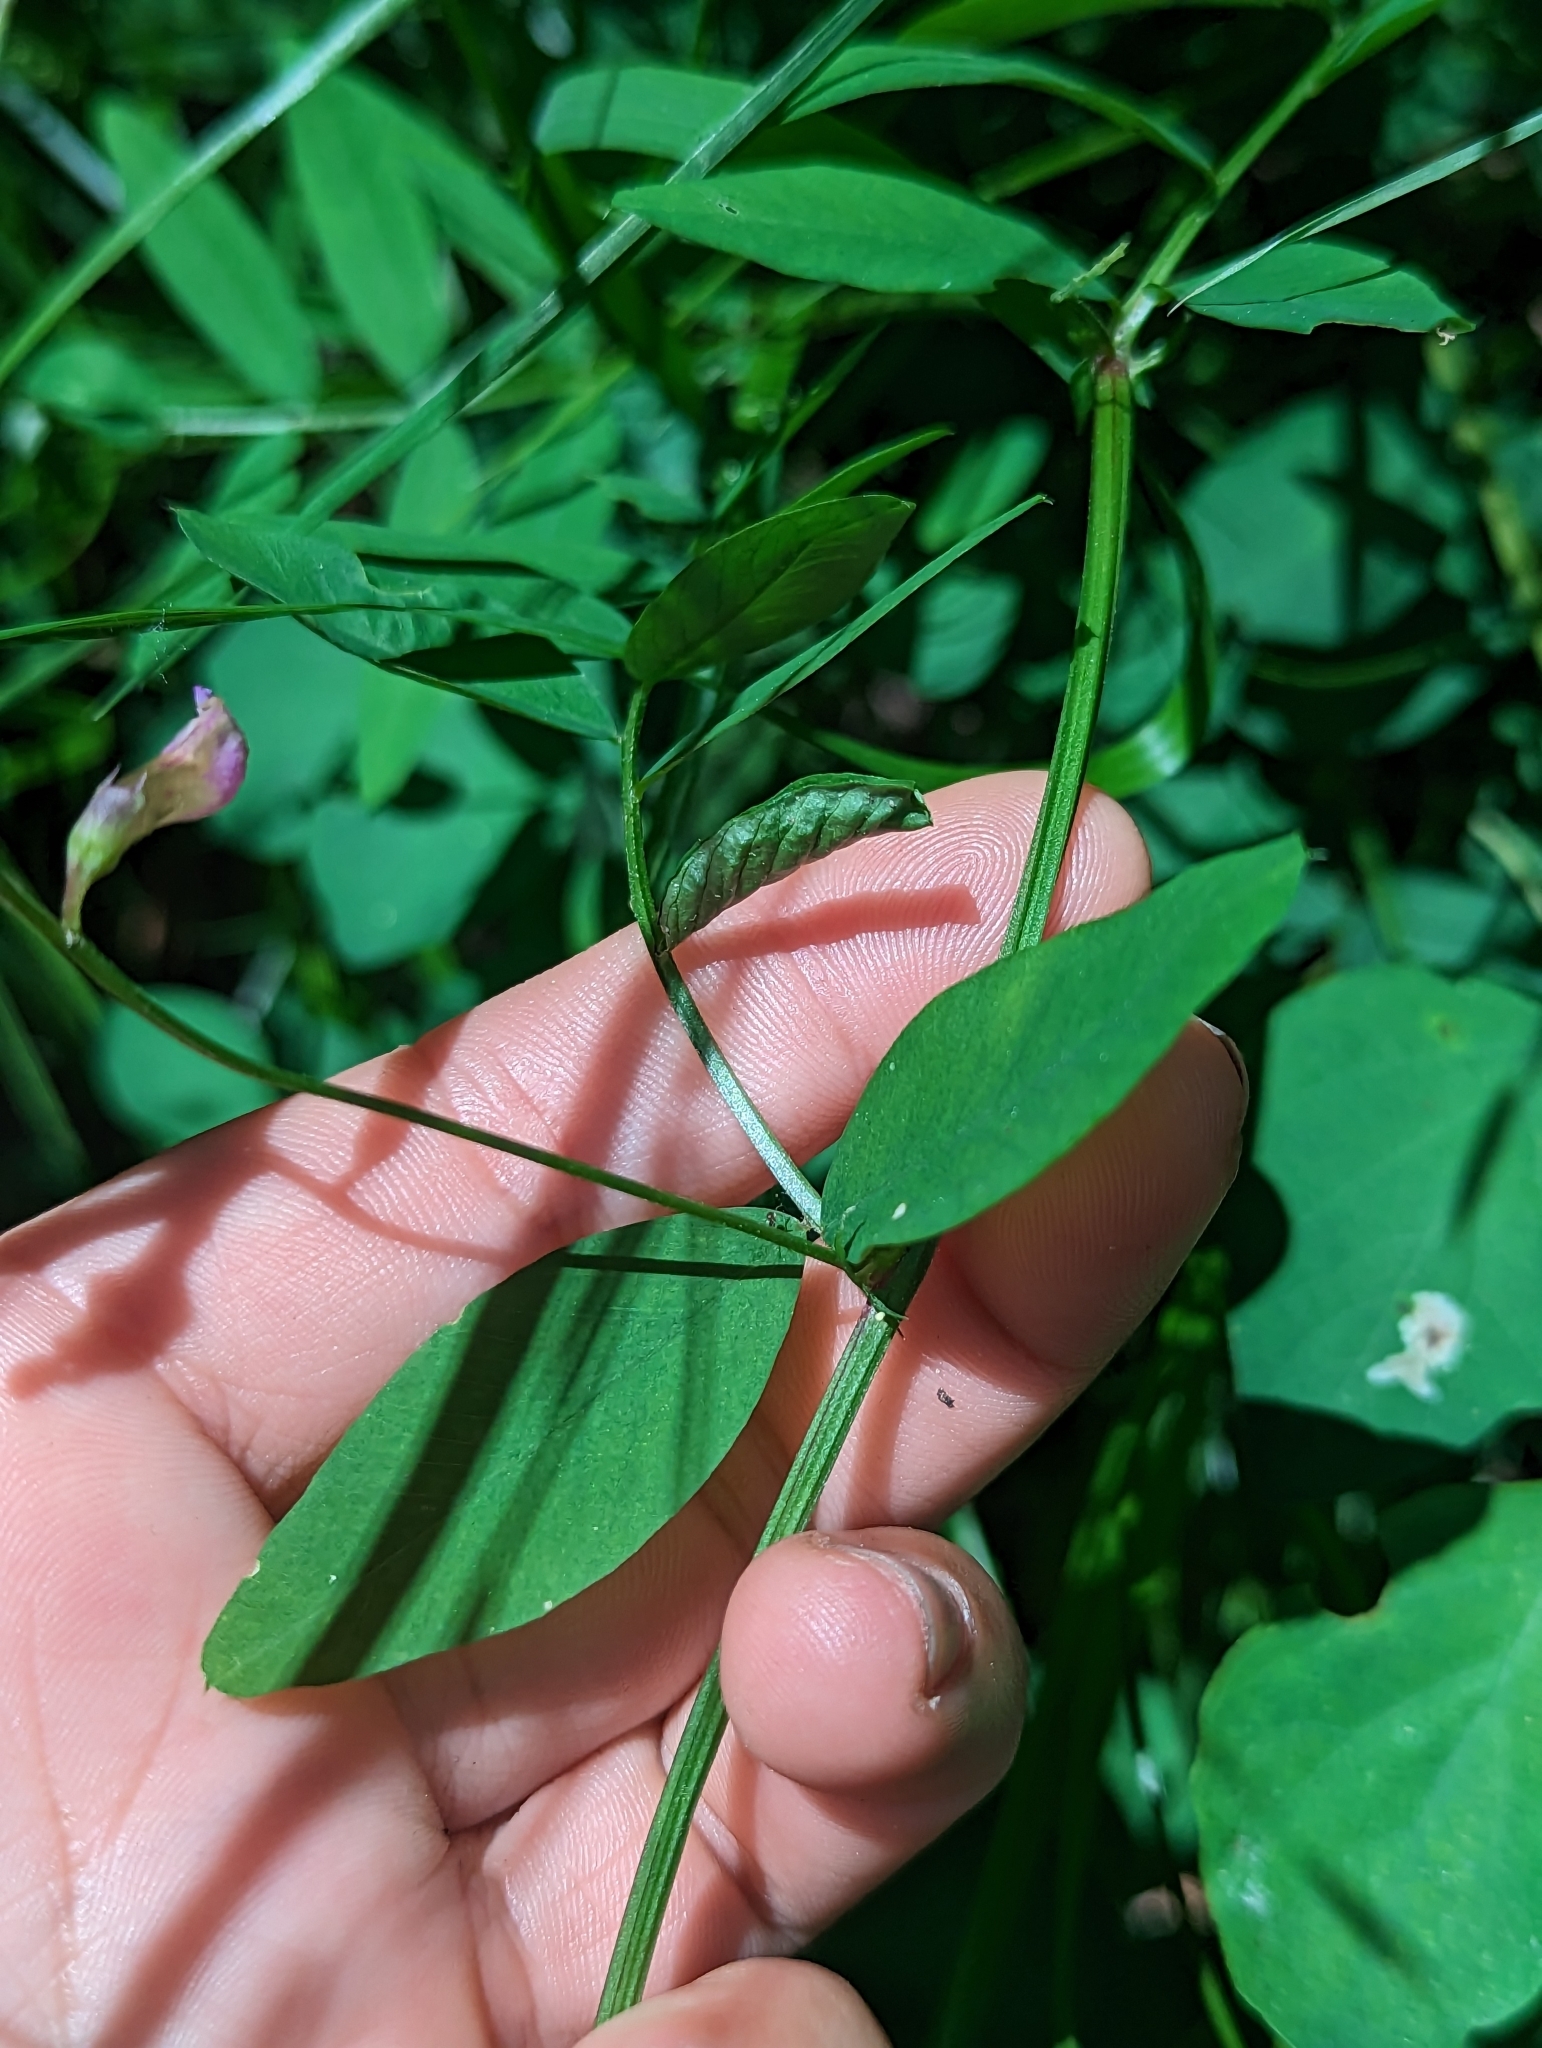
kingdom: Plantae
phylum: Tracheophyta
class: Magnoliopsida
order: Fabales
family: Fabaceae
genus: Vicia
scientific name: Vicia americana
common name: American vetch
